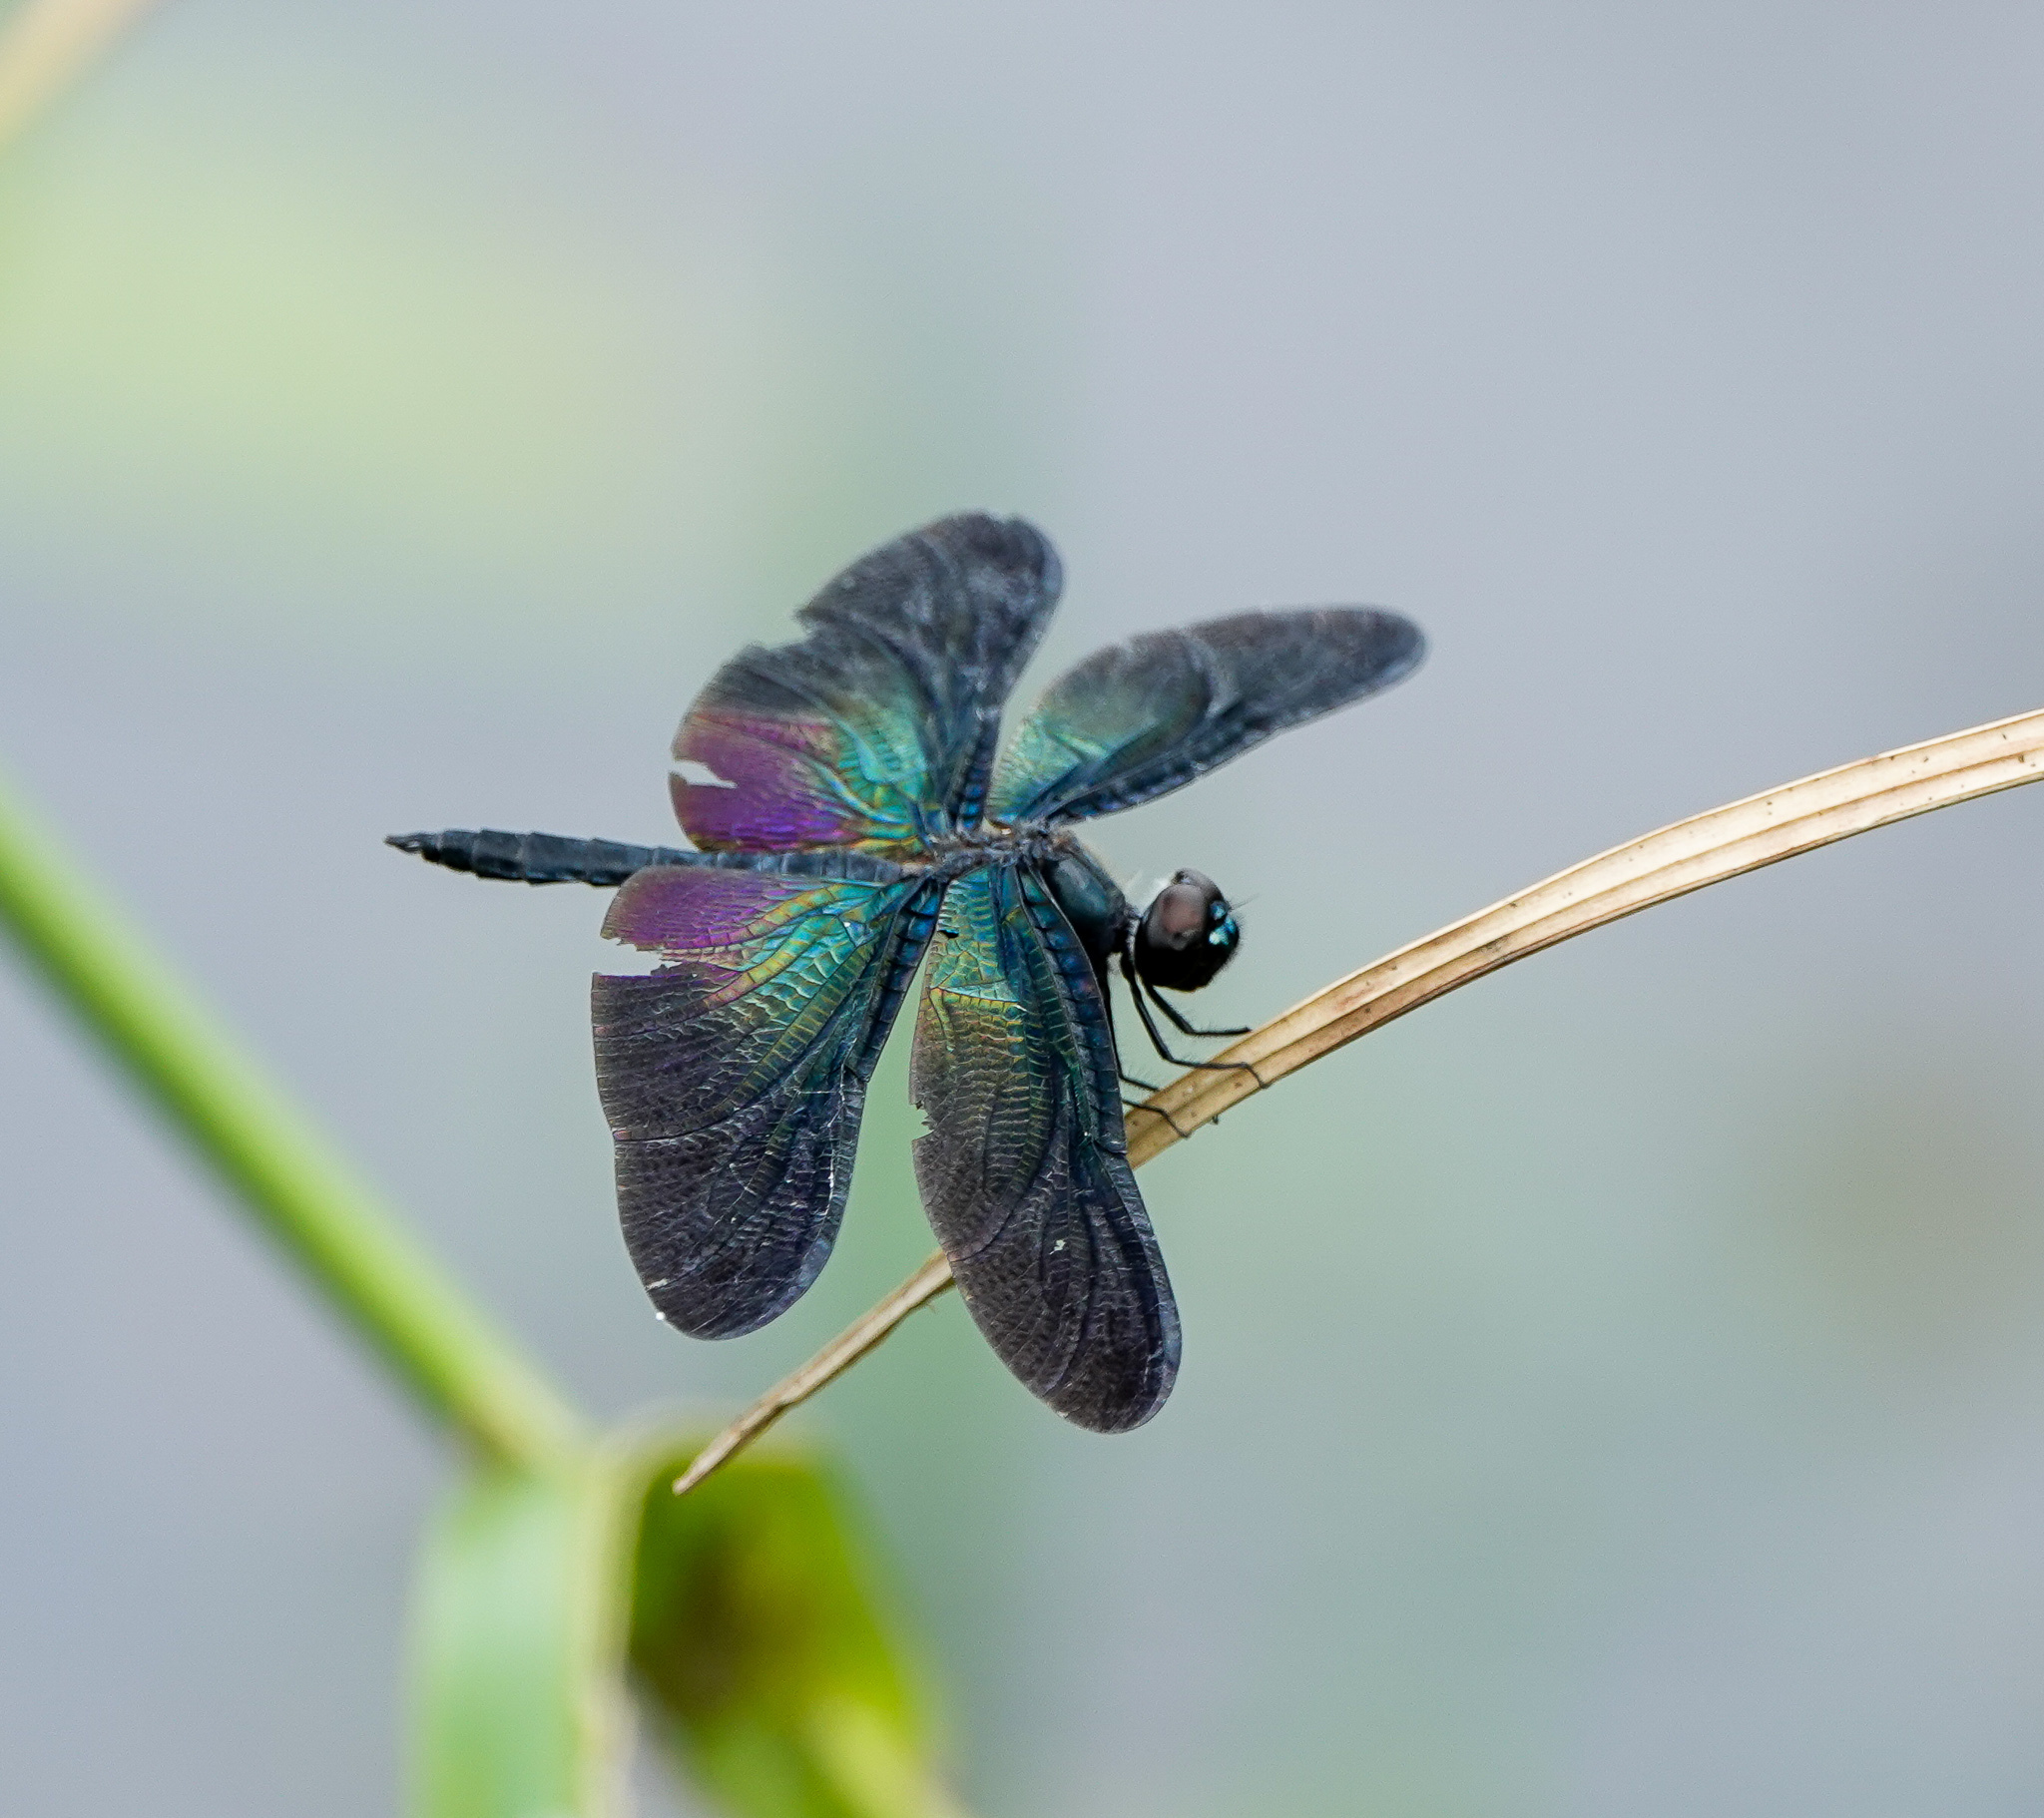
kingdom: Animalia
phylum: Arthropoda
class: Insecta
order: Odonata
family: Libellulidae
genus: Rhyothemis
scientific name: Rhyothemis plutonia
